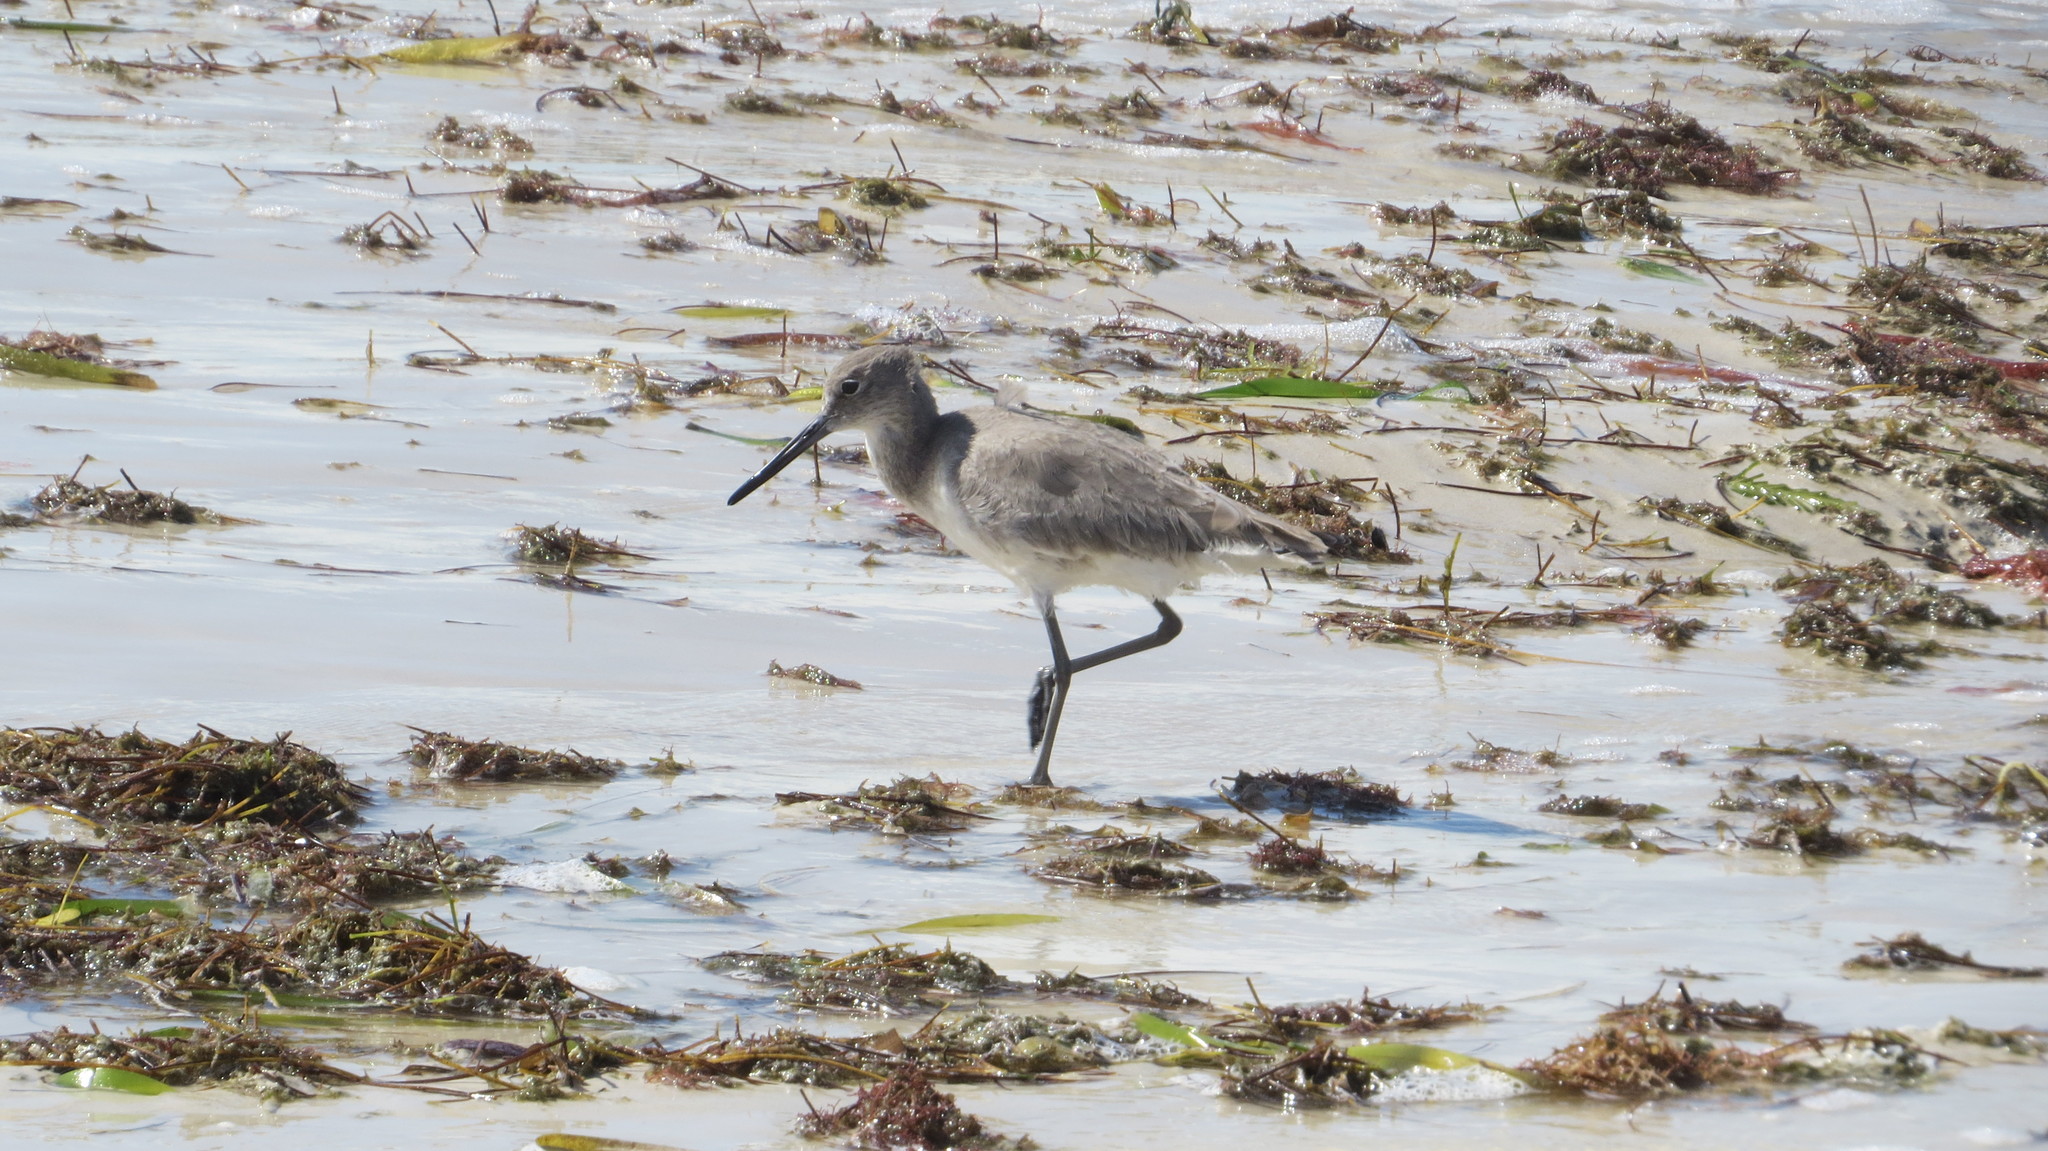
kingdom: Animalia
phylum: Chordata
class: Aves
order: Charadriiformes
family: Scolopacidae
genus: Tringa
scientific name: Tringa semipalmata
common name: Willet
